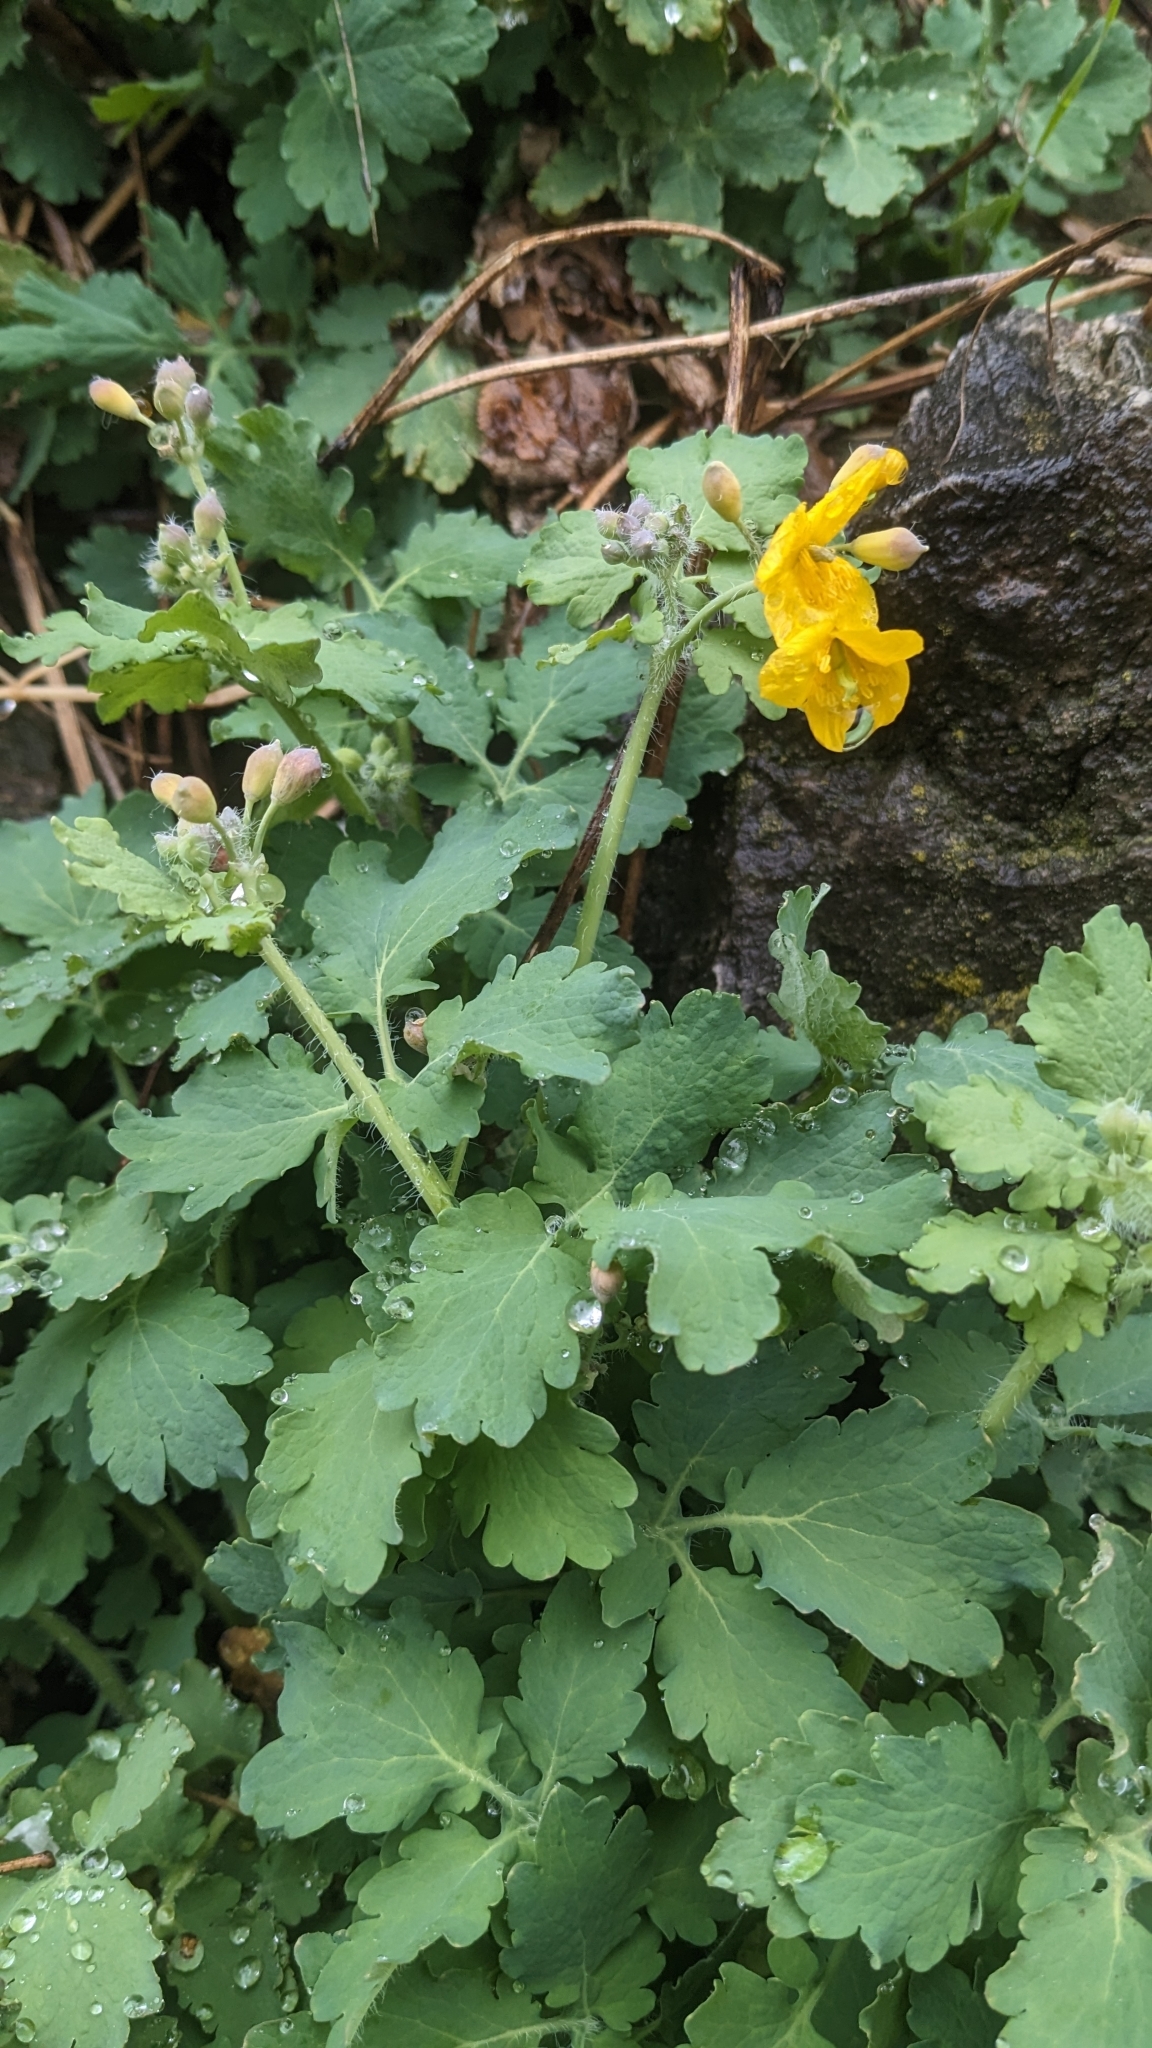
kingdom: Plantae
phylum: Tracheophyta
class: Magnoliopsida
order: Ranunculales
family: Papaveraceae
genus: Chelidonium
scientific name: Chelidonium majus
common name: Greater celandine
